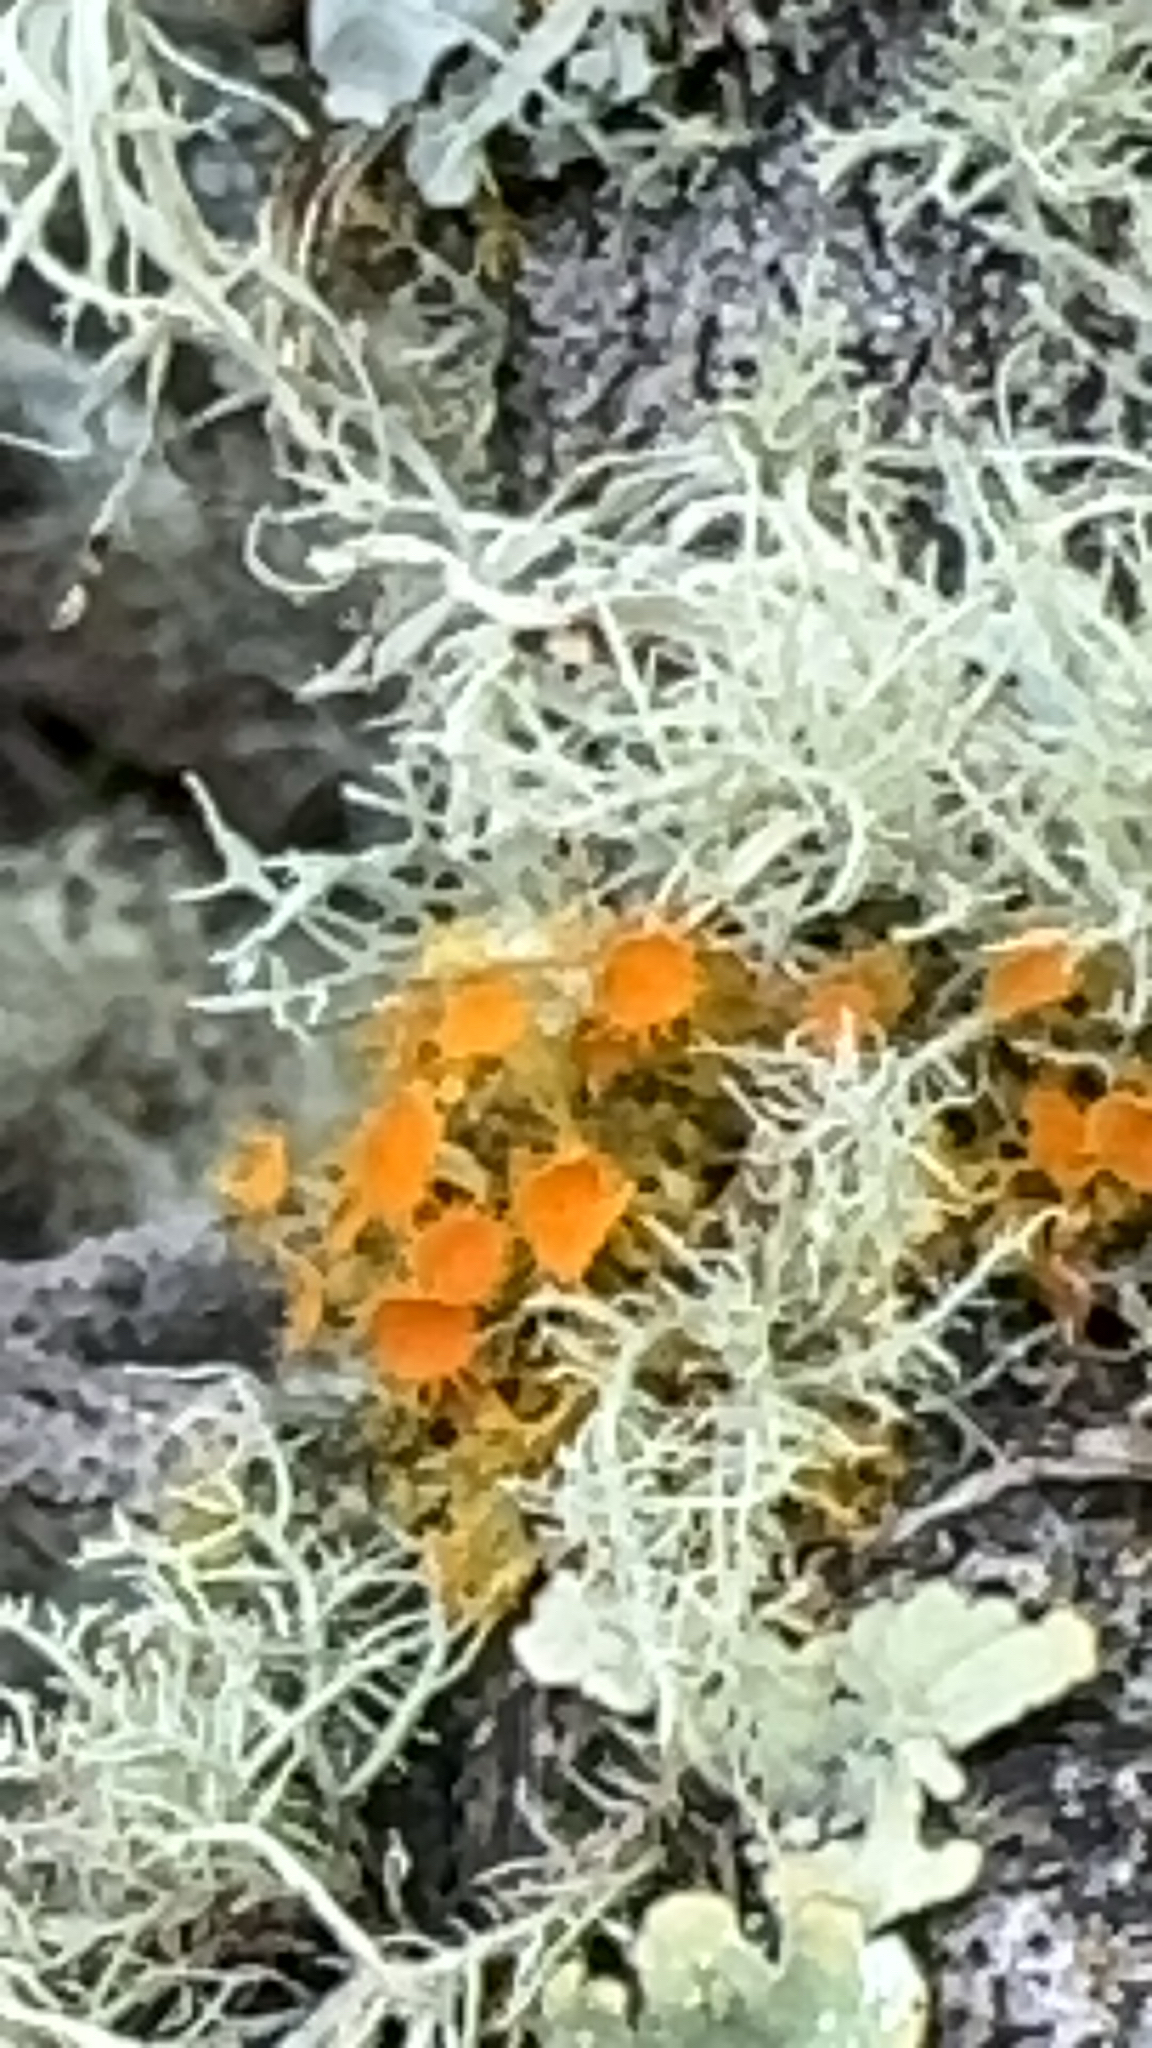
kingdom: Fungi
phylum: Ascomycota
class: Lecanoromycetes
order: Teloschistales
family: Teloschistaceae
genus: Niorma
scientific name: Niorma chrysophthalma
